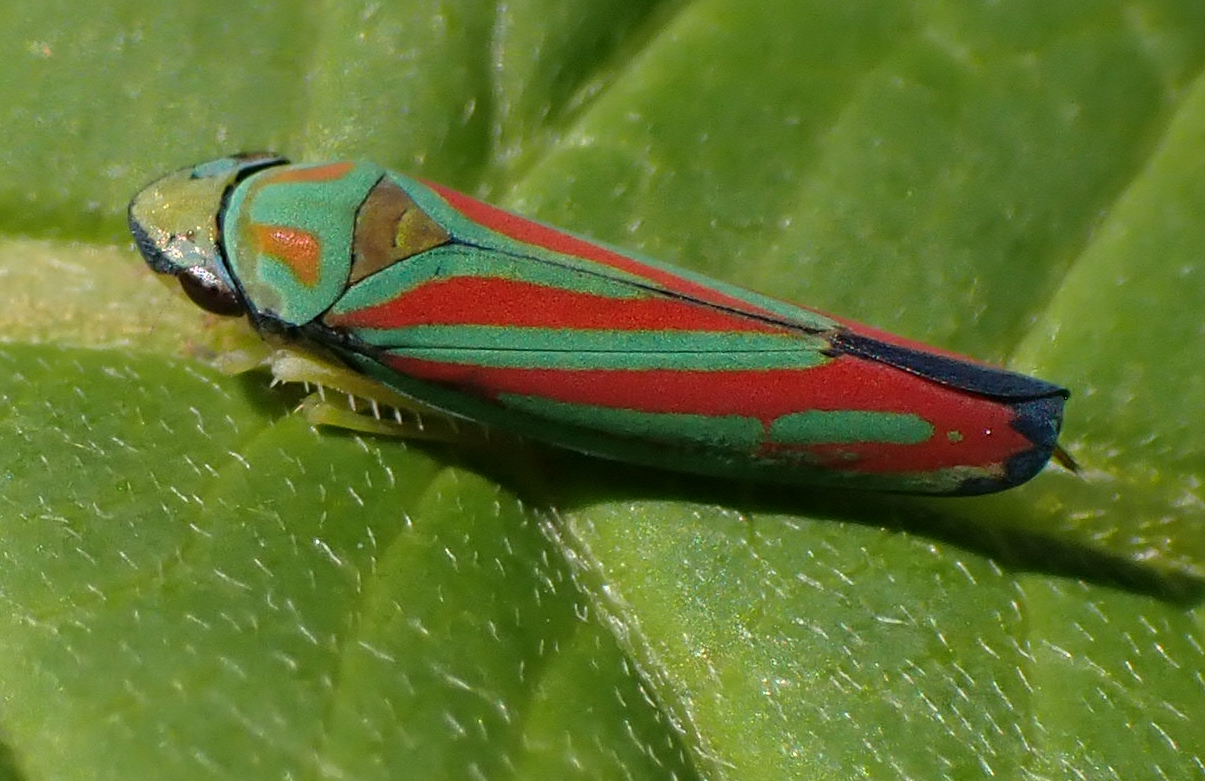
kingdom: Animalia
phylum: Arthropoda
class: Insecta
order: Hemiptera
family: Cicadellidae
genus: Graphocephala
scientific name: Graphocephala coccinea
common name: Candy-striped leafhopper
